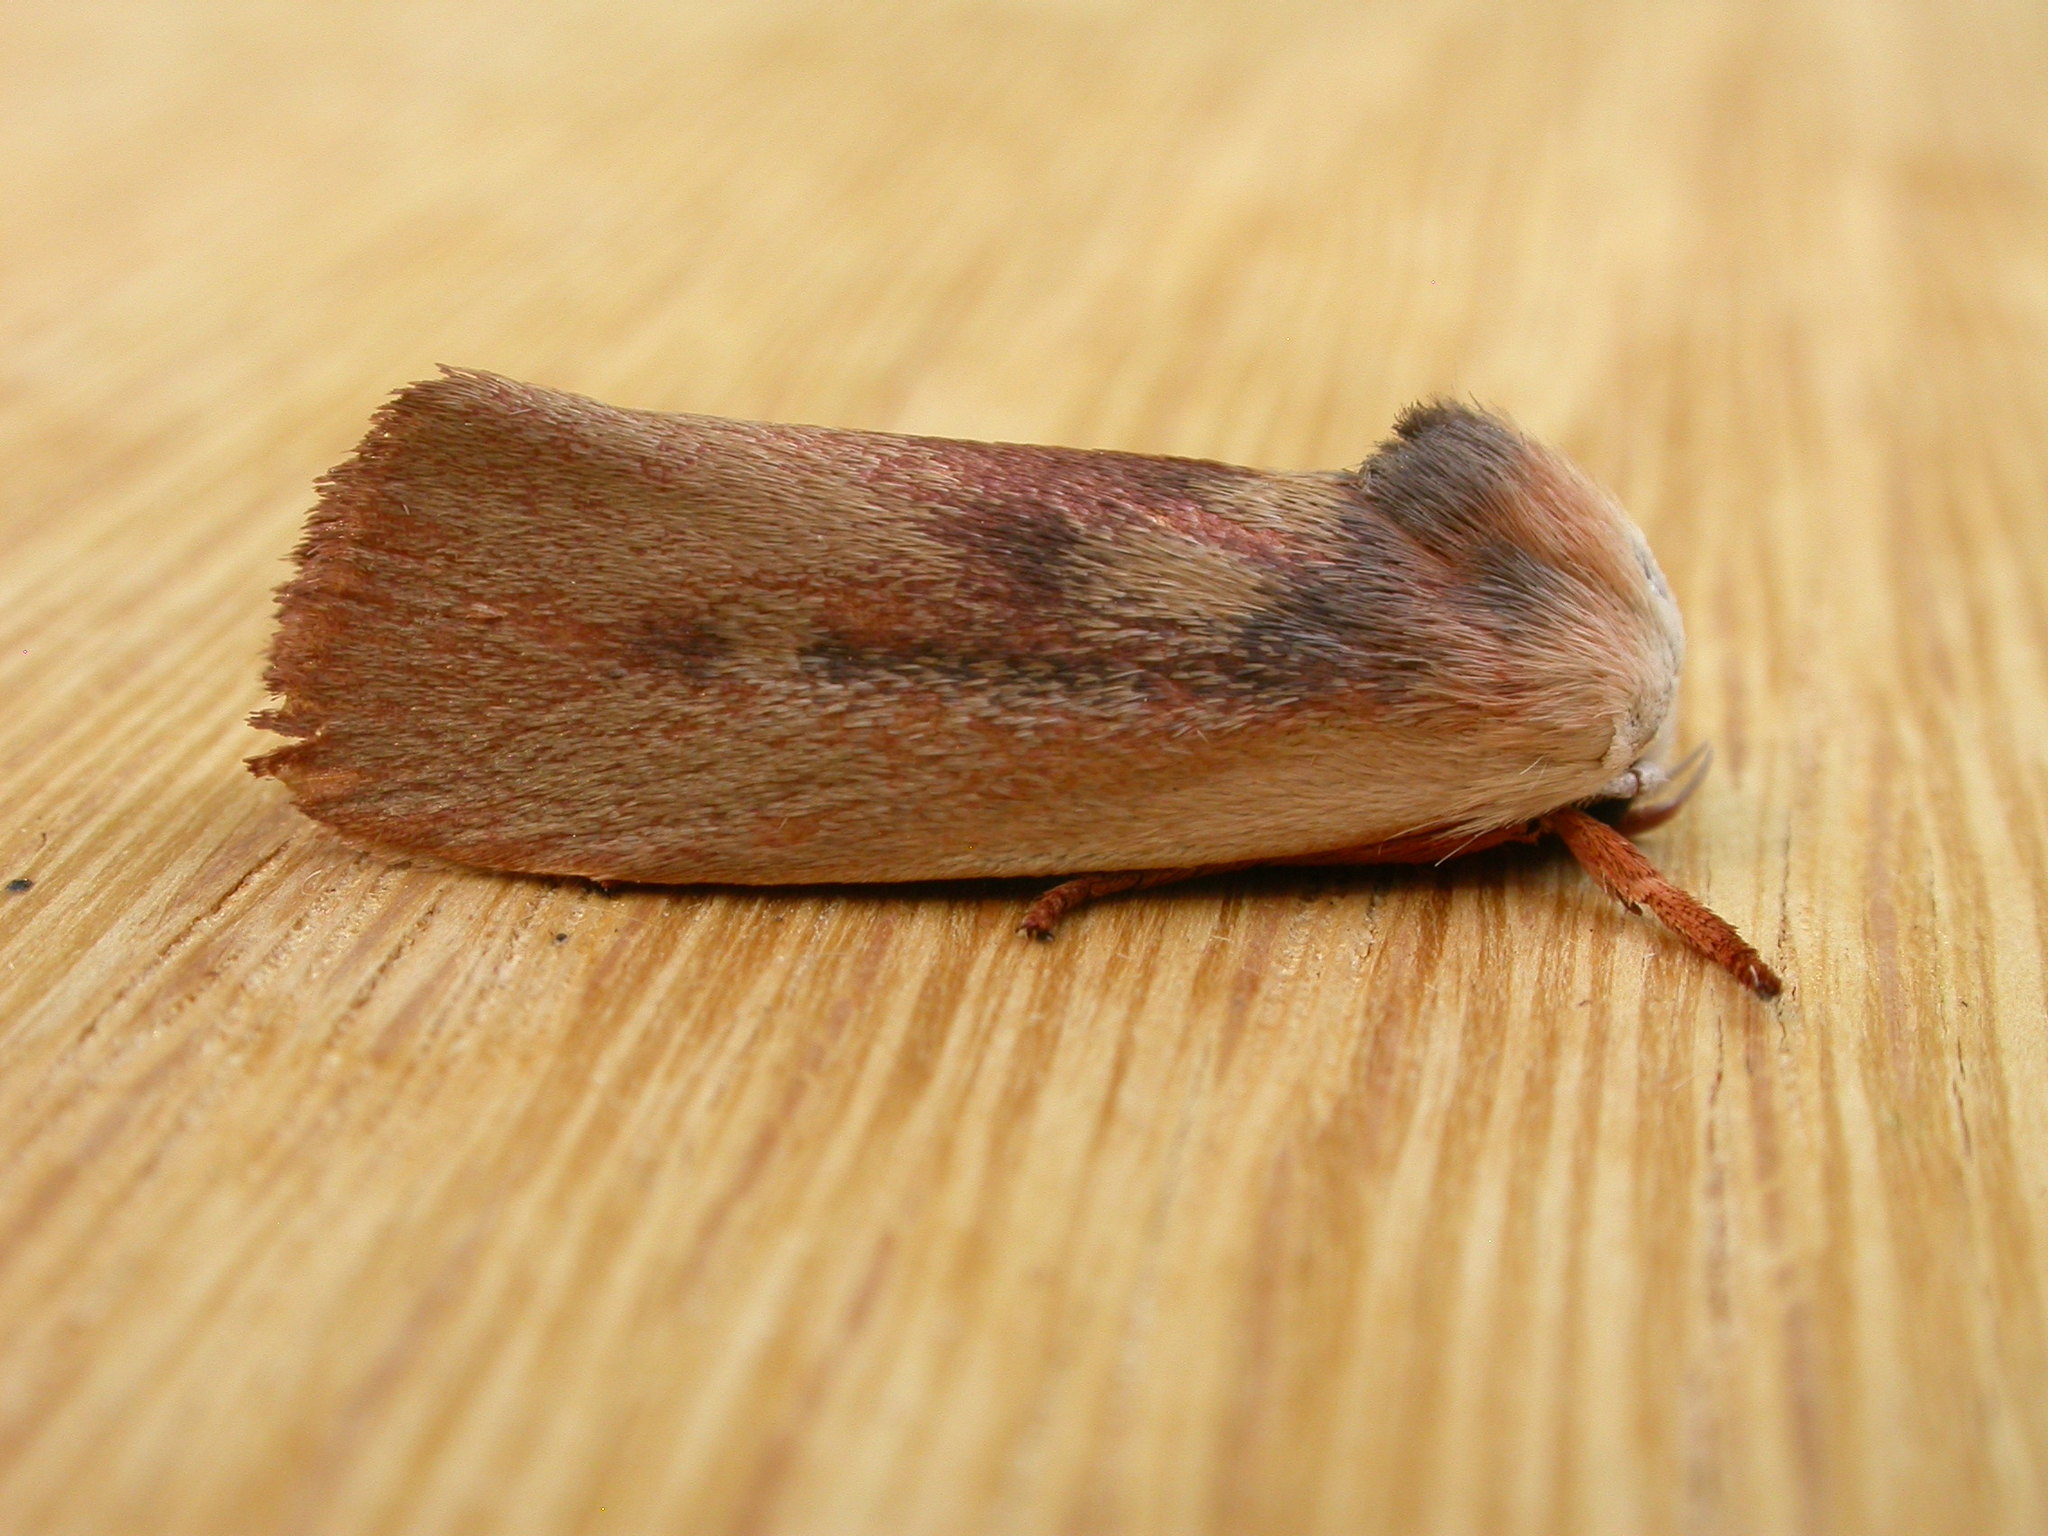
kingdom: Animalia
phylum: Arthropoda
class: Insecta
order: Lepidoptera
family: Xyloryctidae
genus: Cryptophasa
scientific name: Cryptophasa rubescens
